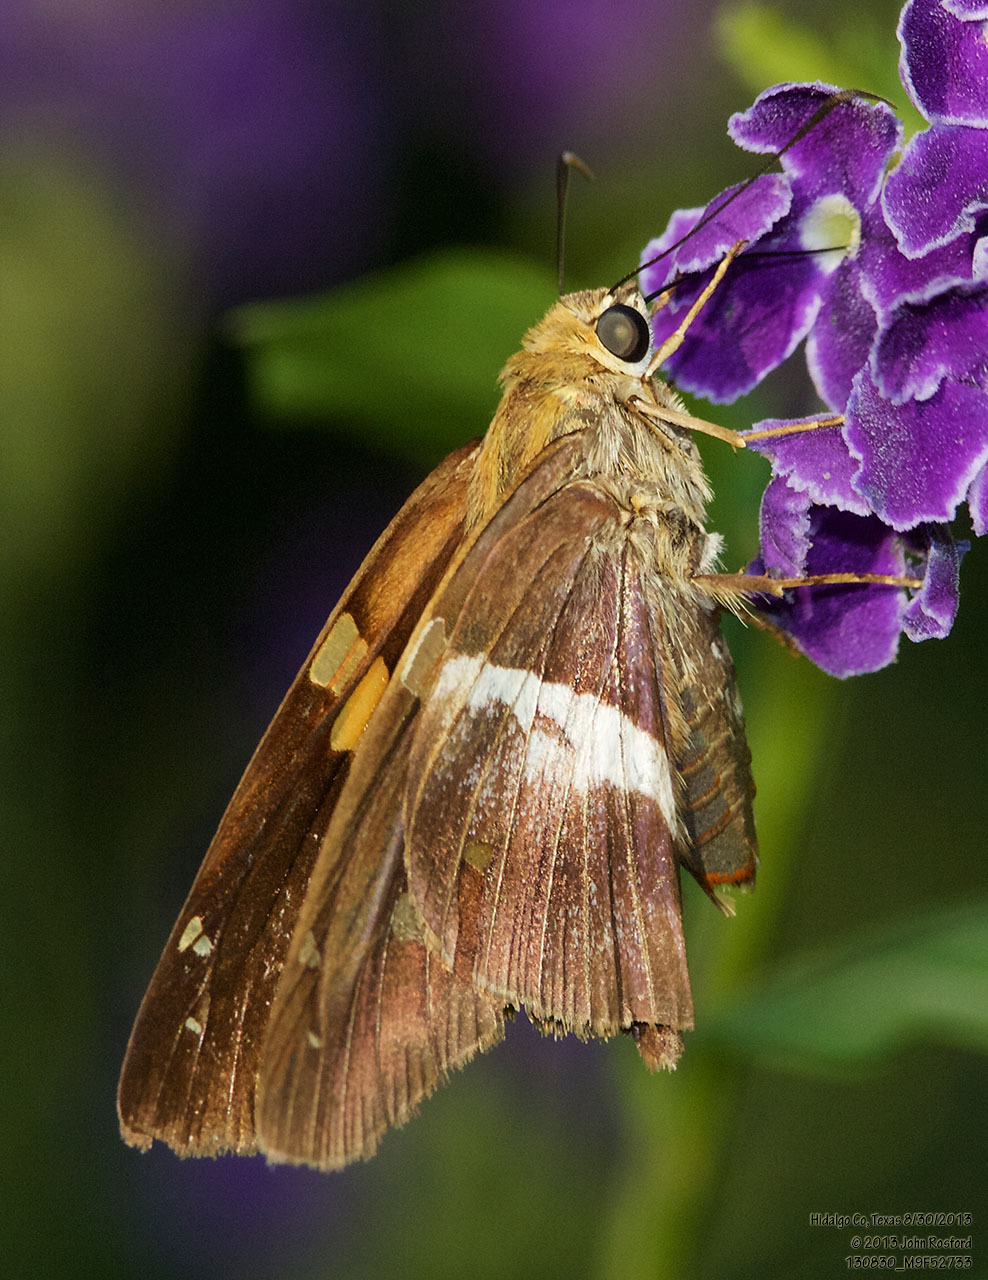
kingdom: Animalia
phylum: Arthropoda
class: Insecta
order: Lepidoptera
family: Hesperiidae
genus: Aguna
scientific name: Aguna asander
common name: Gold-spotted aguna
